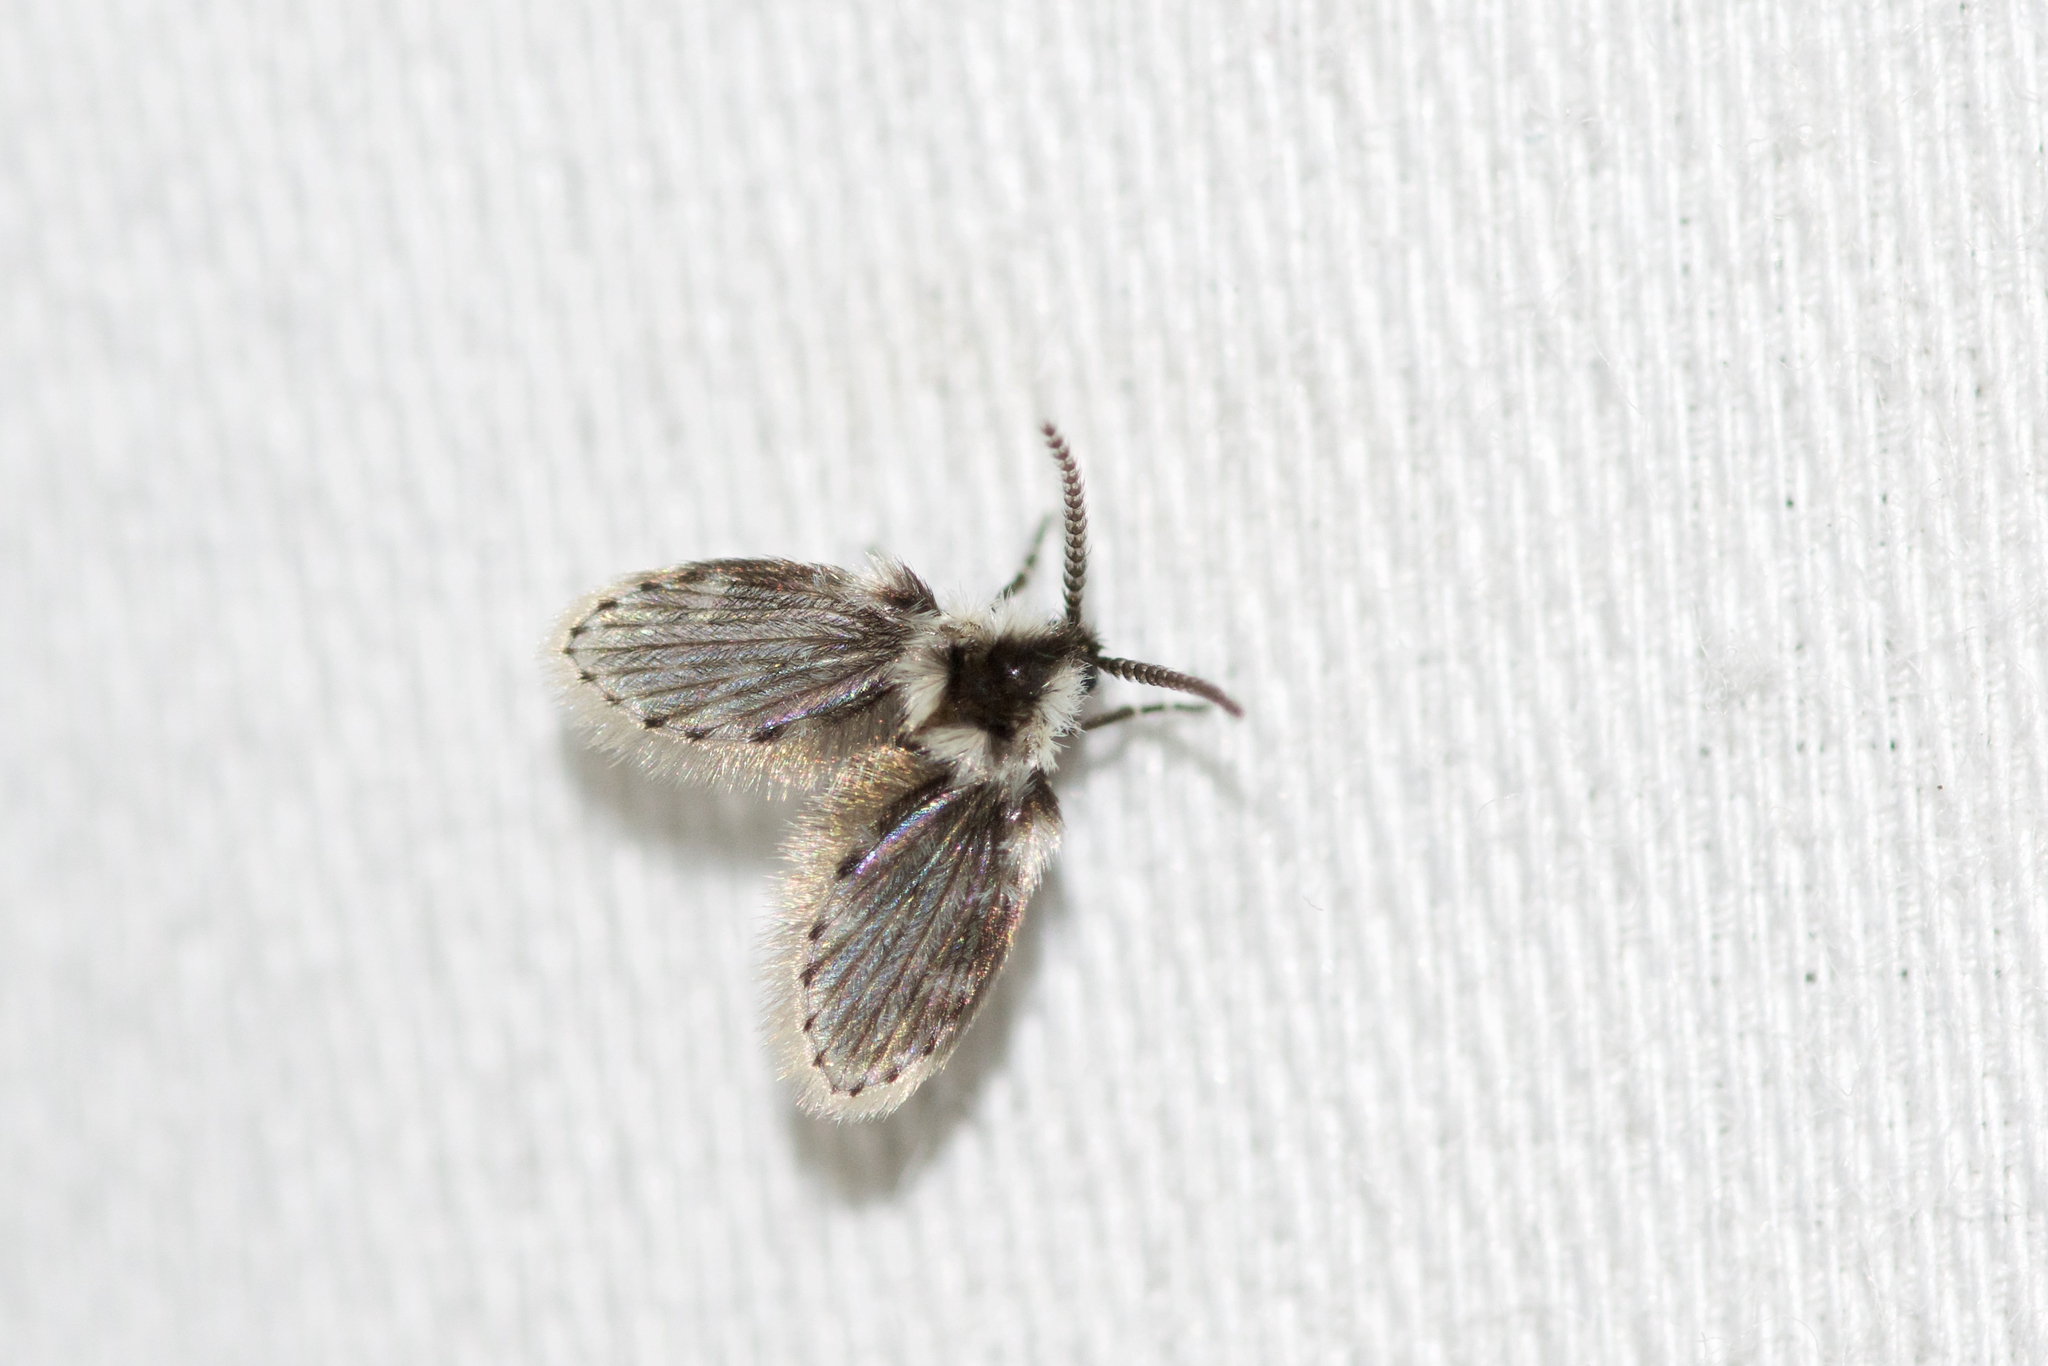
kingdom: Animalia
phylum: Arthropoda
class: Insecta
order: Diptera
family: Psychodidae
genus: Lepiseodina
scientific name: Lepiseodina
